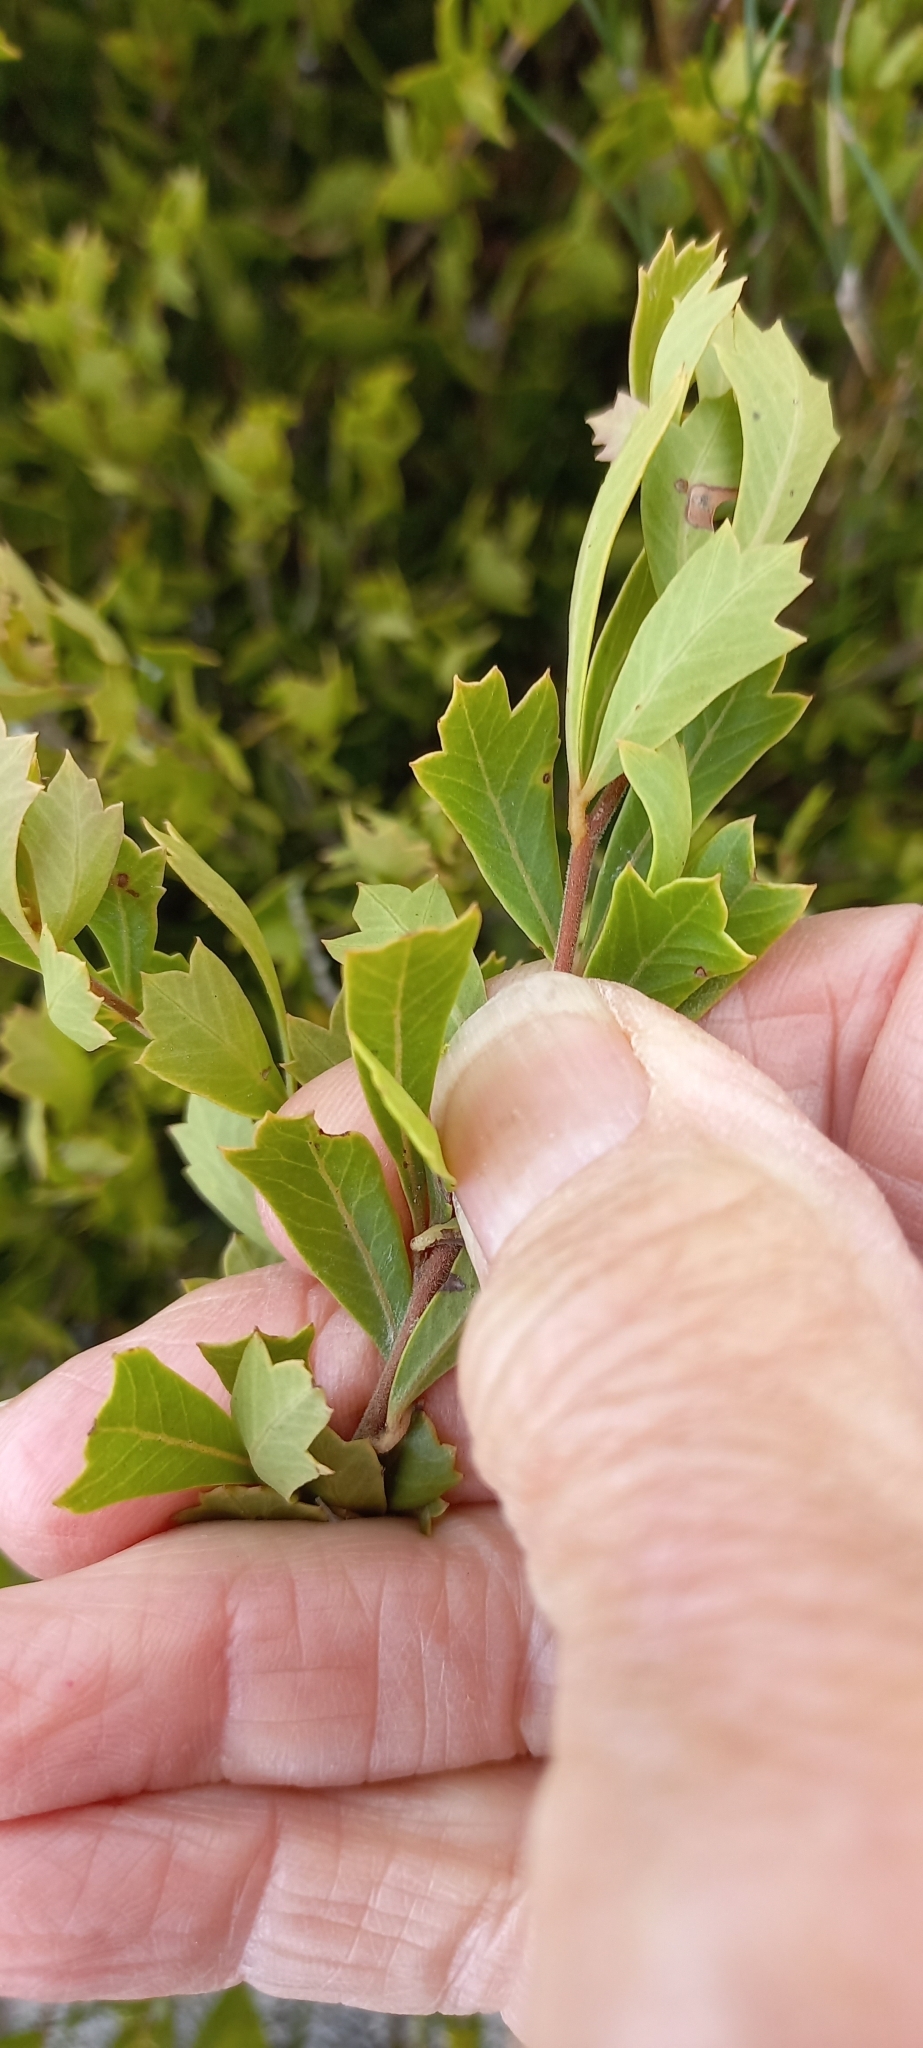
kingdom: Plantae
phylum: Tracheophyta
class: Magnoliopsida
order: Sapindales
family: Anacardiaceae
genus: Searsia
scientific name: Searsia cuneifolia
